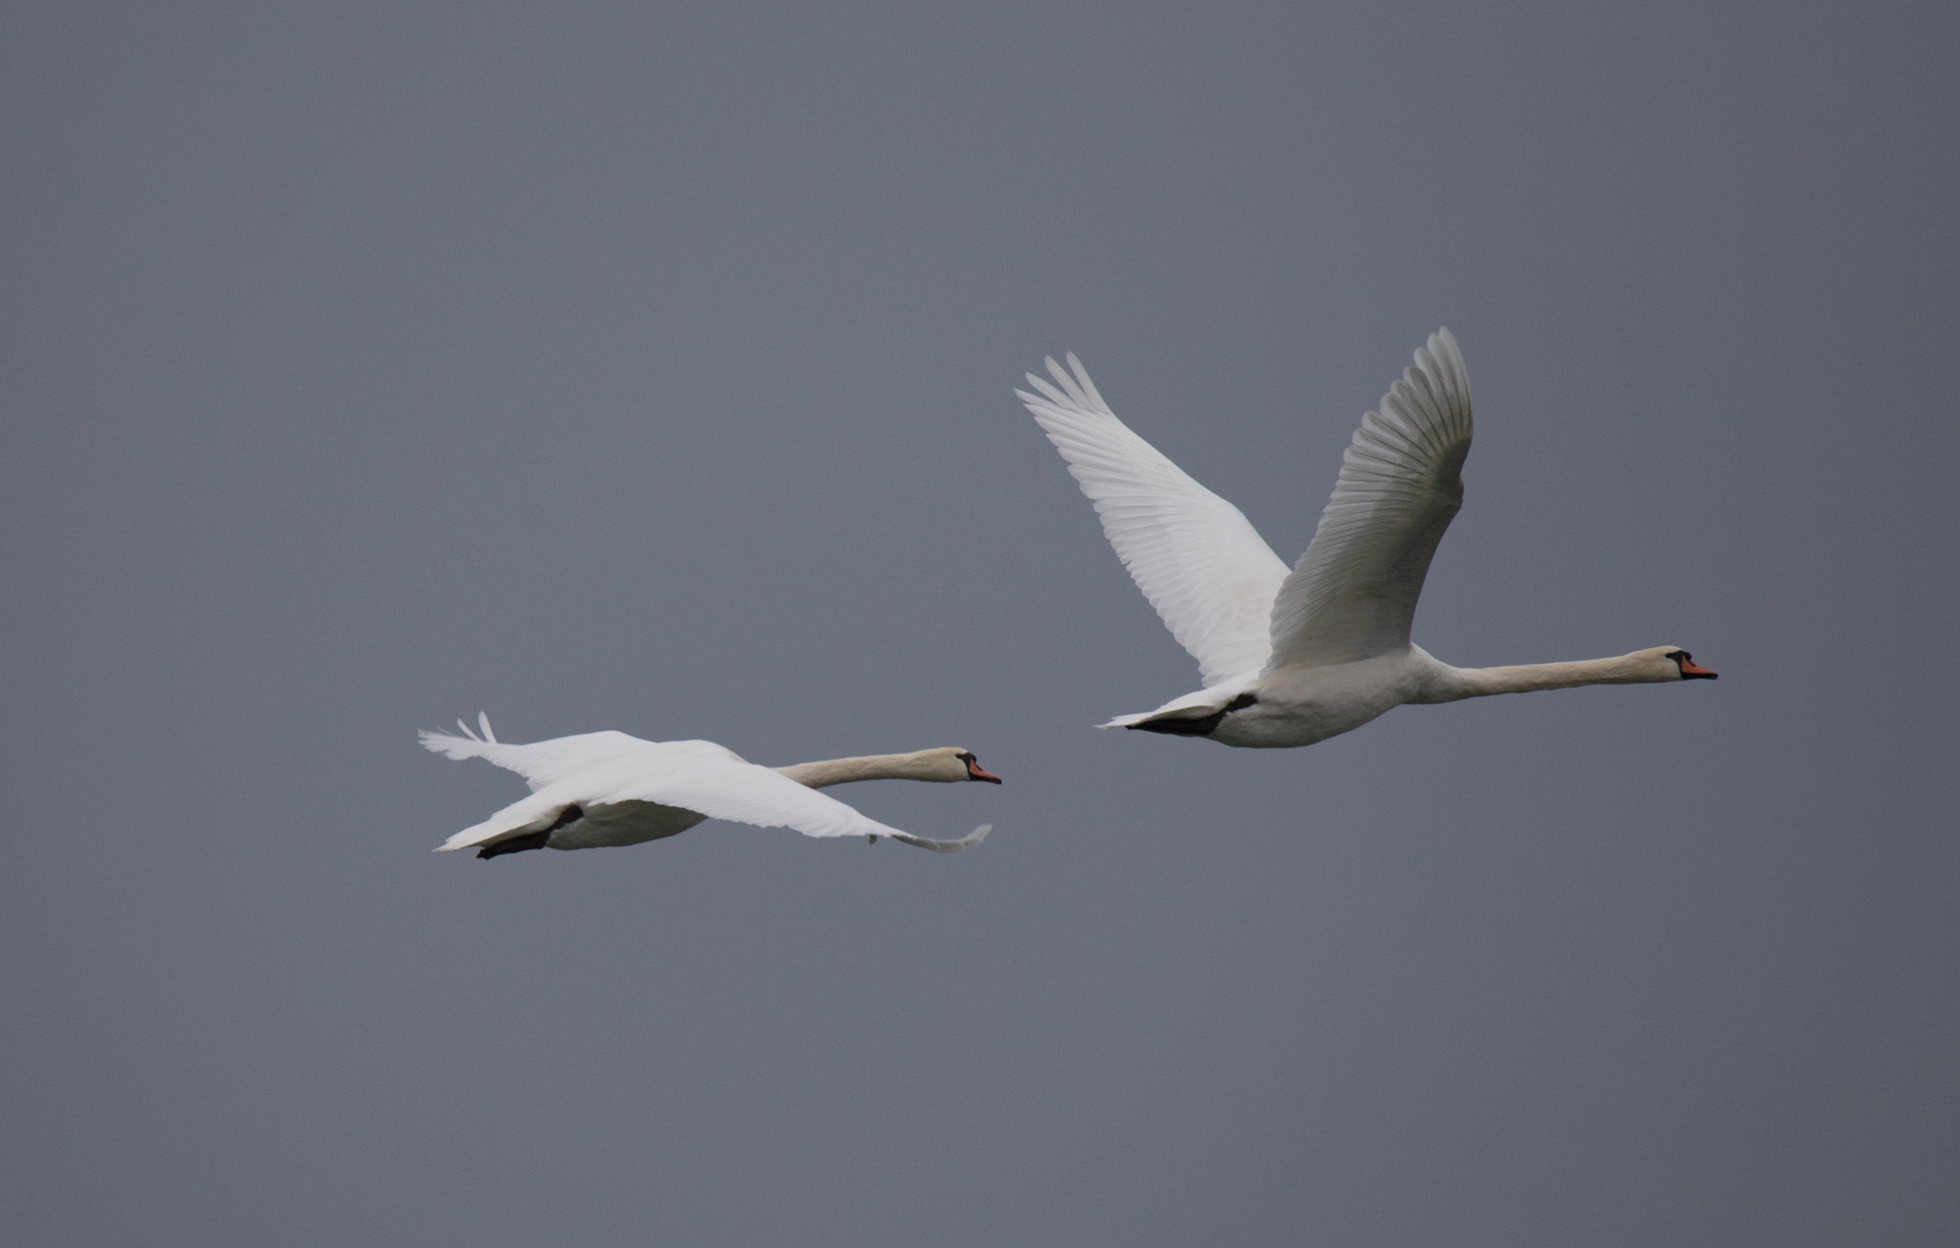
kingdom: Animalia
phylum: Chordata
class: Aves
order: Anseriformes
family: Anatidae
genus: Cygnus
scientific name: Cygnus olor
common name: Mute swan
